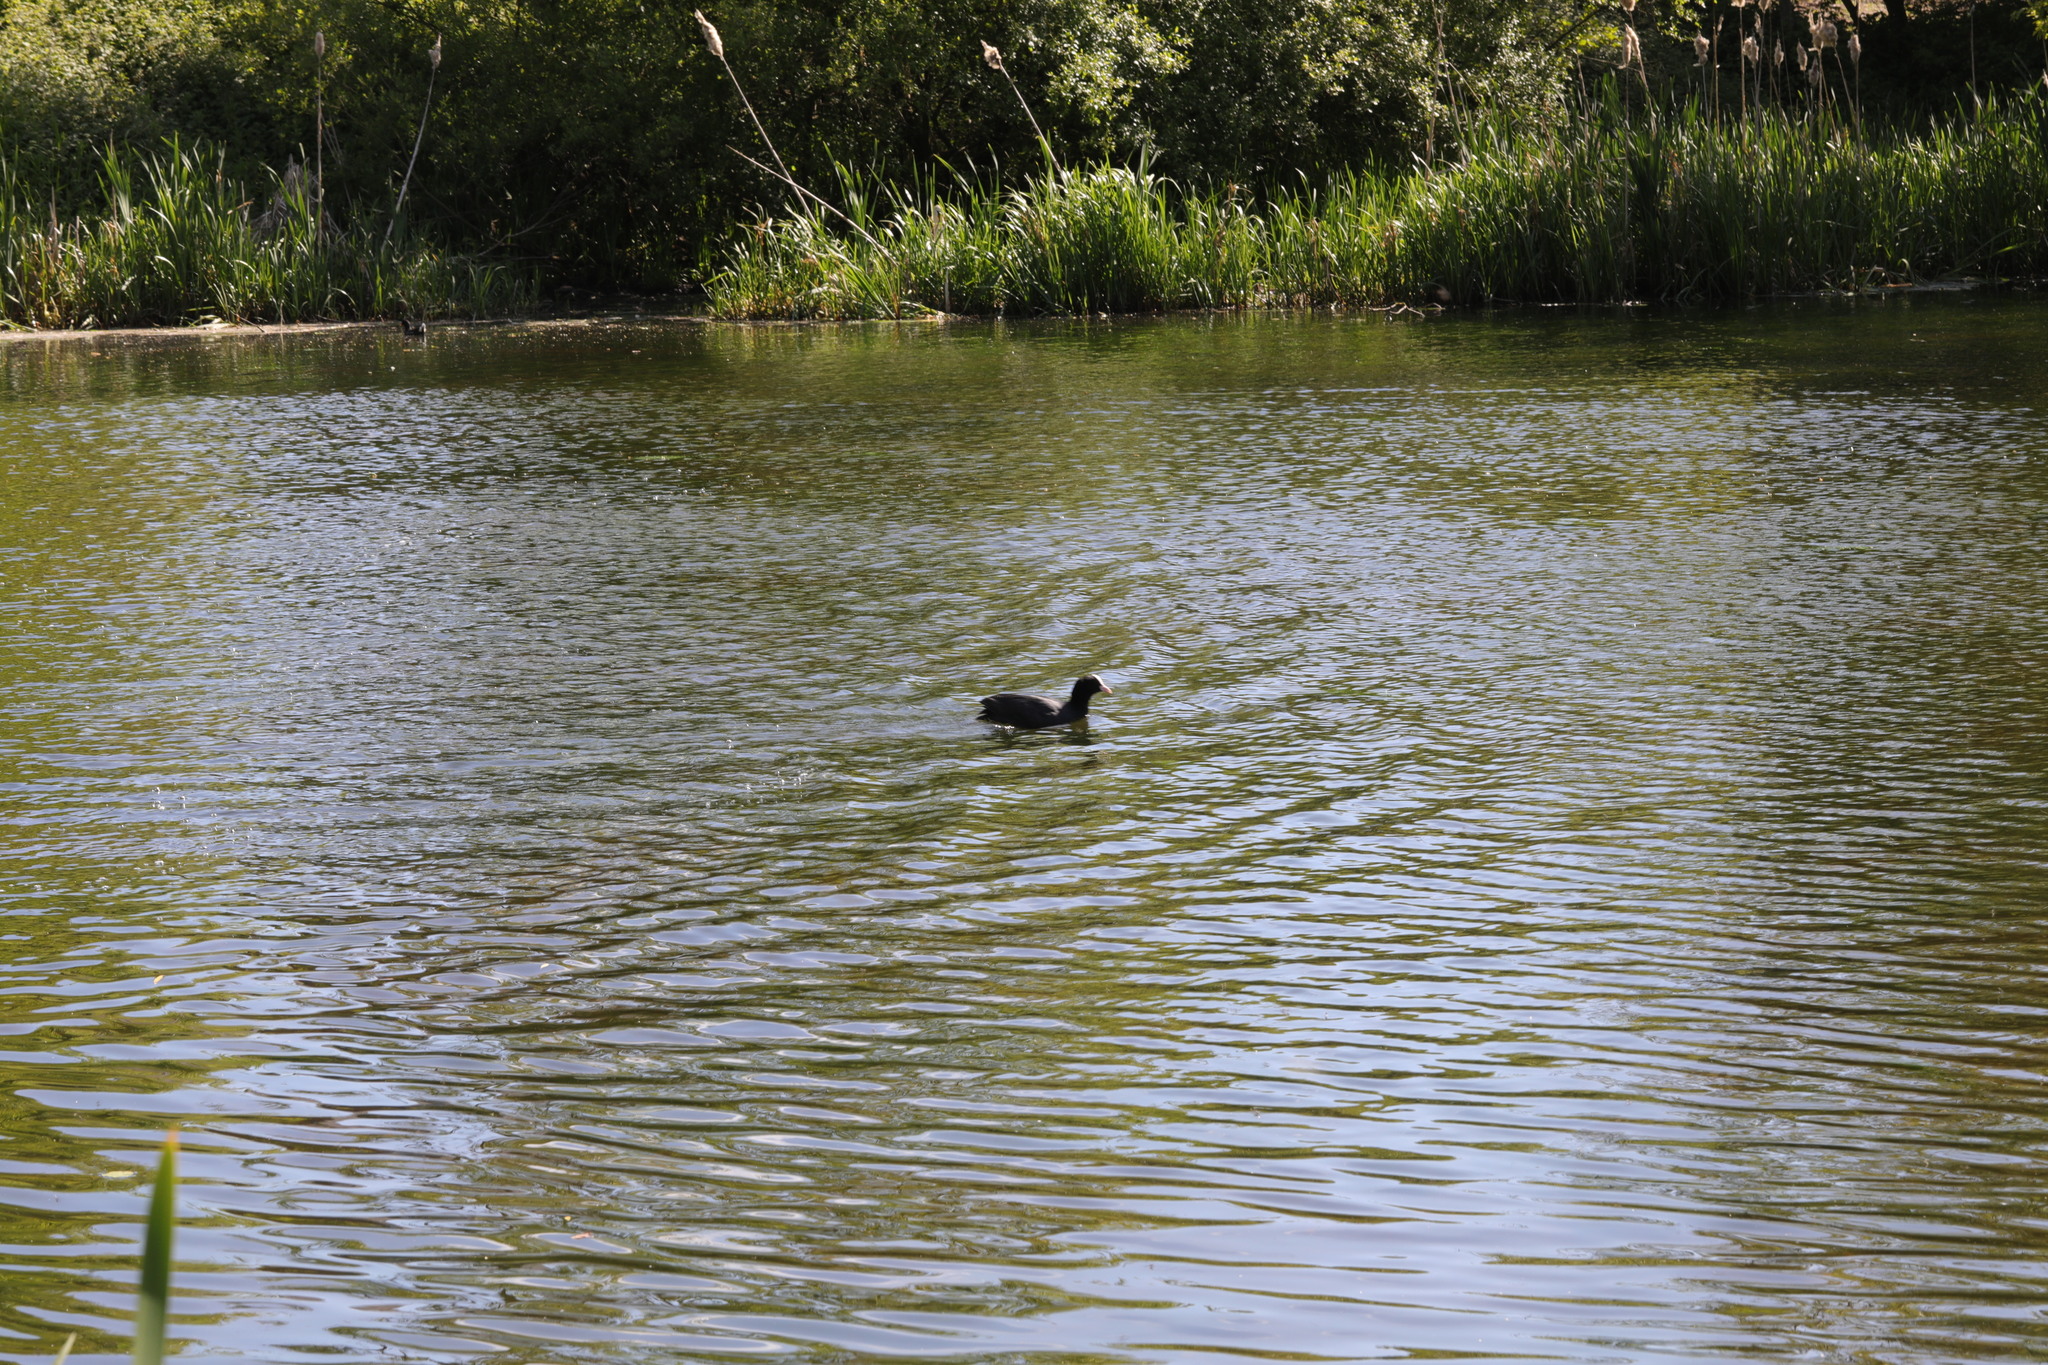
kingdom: Animalia
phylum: Chordata
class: Aves
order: Gruiformes
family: Rallidae
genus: Fulica
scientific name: Fulica atra
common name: Eurasian coot
